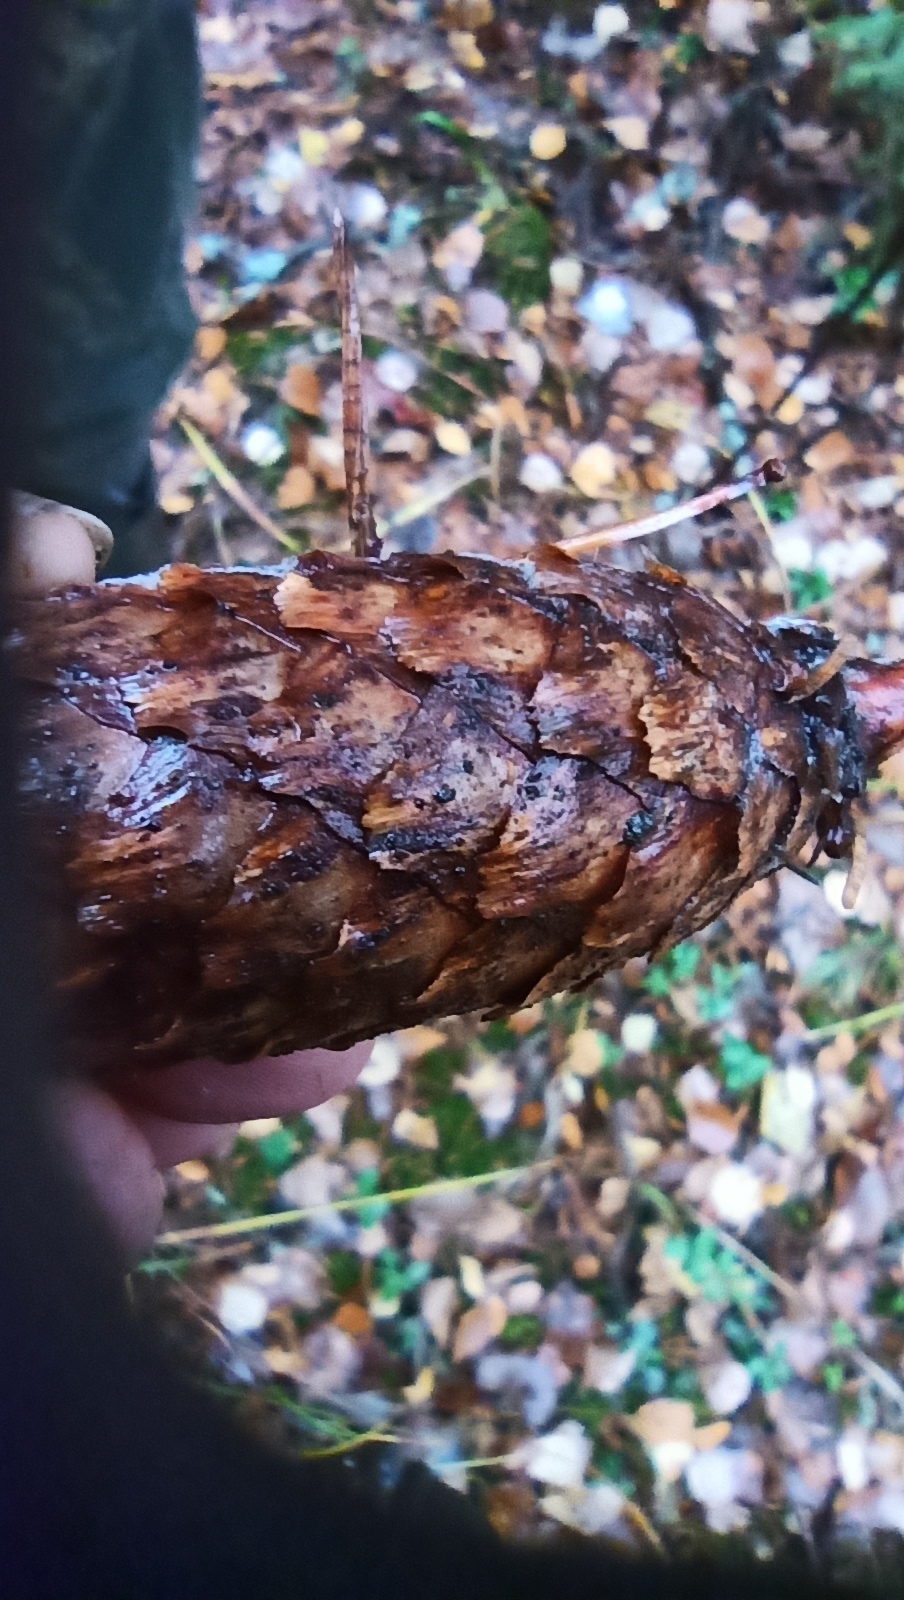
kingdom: Fungi
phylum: Ascomycota
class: Dothideomycetes
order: Pleosporales
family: Melanommataceae
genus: Phragmotrichum
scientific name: Phragmotrichum chailletii
